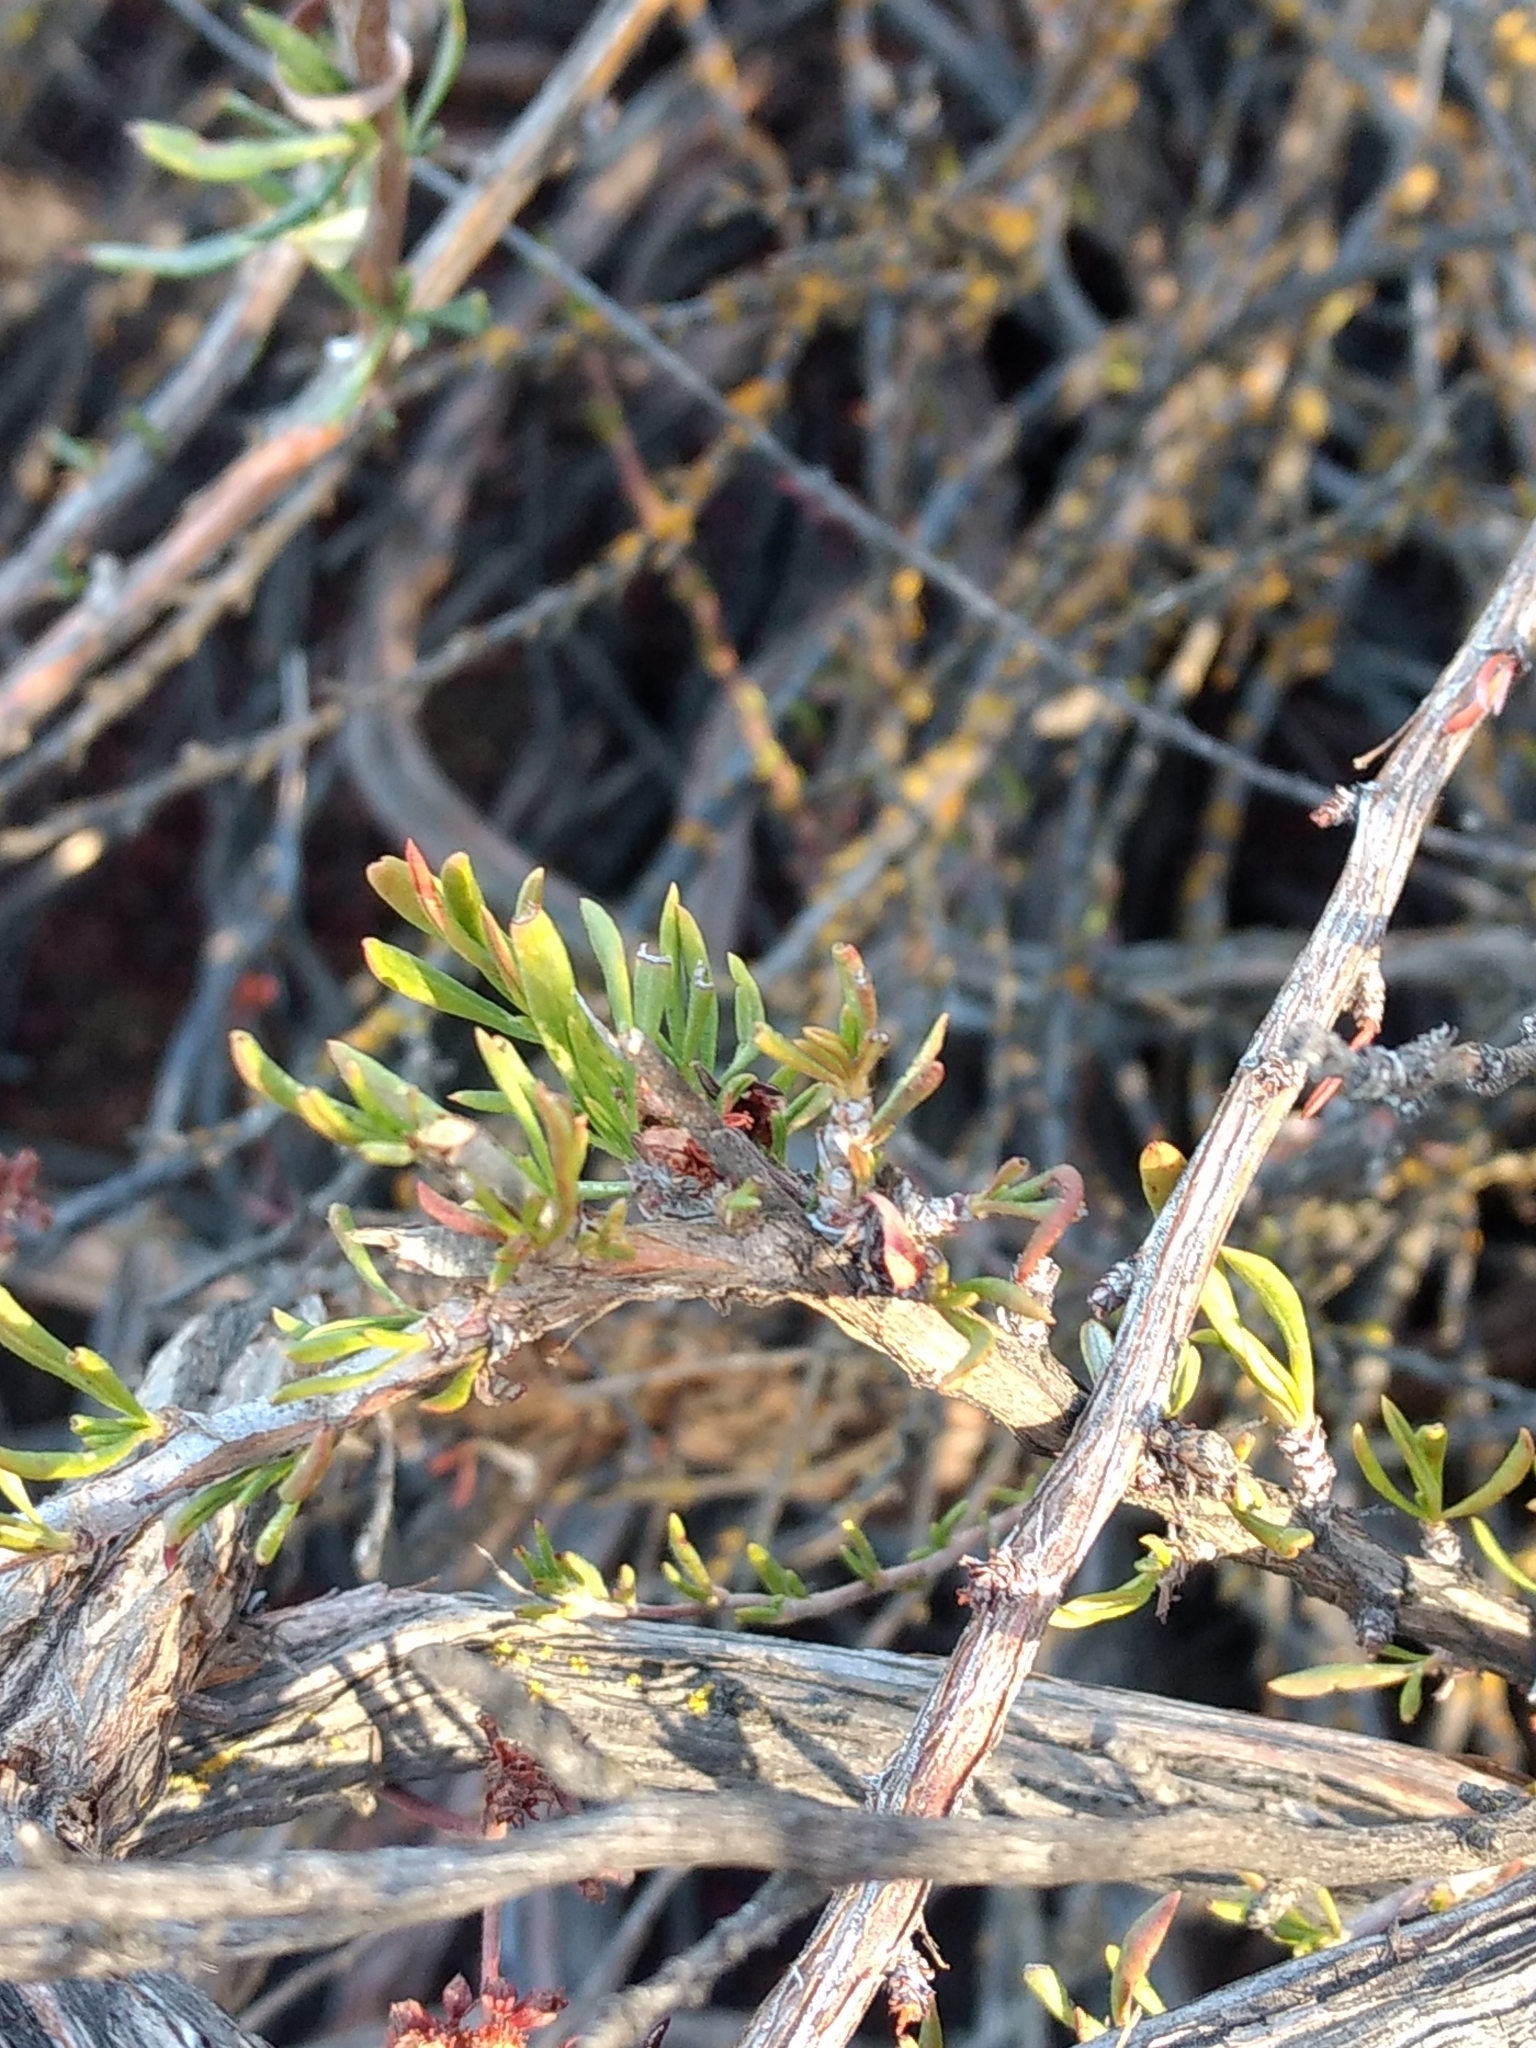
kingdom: Plantae
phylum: Tracheophyta
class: Magnoliopsida
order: Caryophyllales
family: Polygonaceae
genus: Eriogonum
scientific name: Eriogonum fasciculatum
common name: California wild buckwheat
